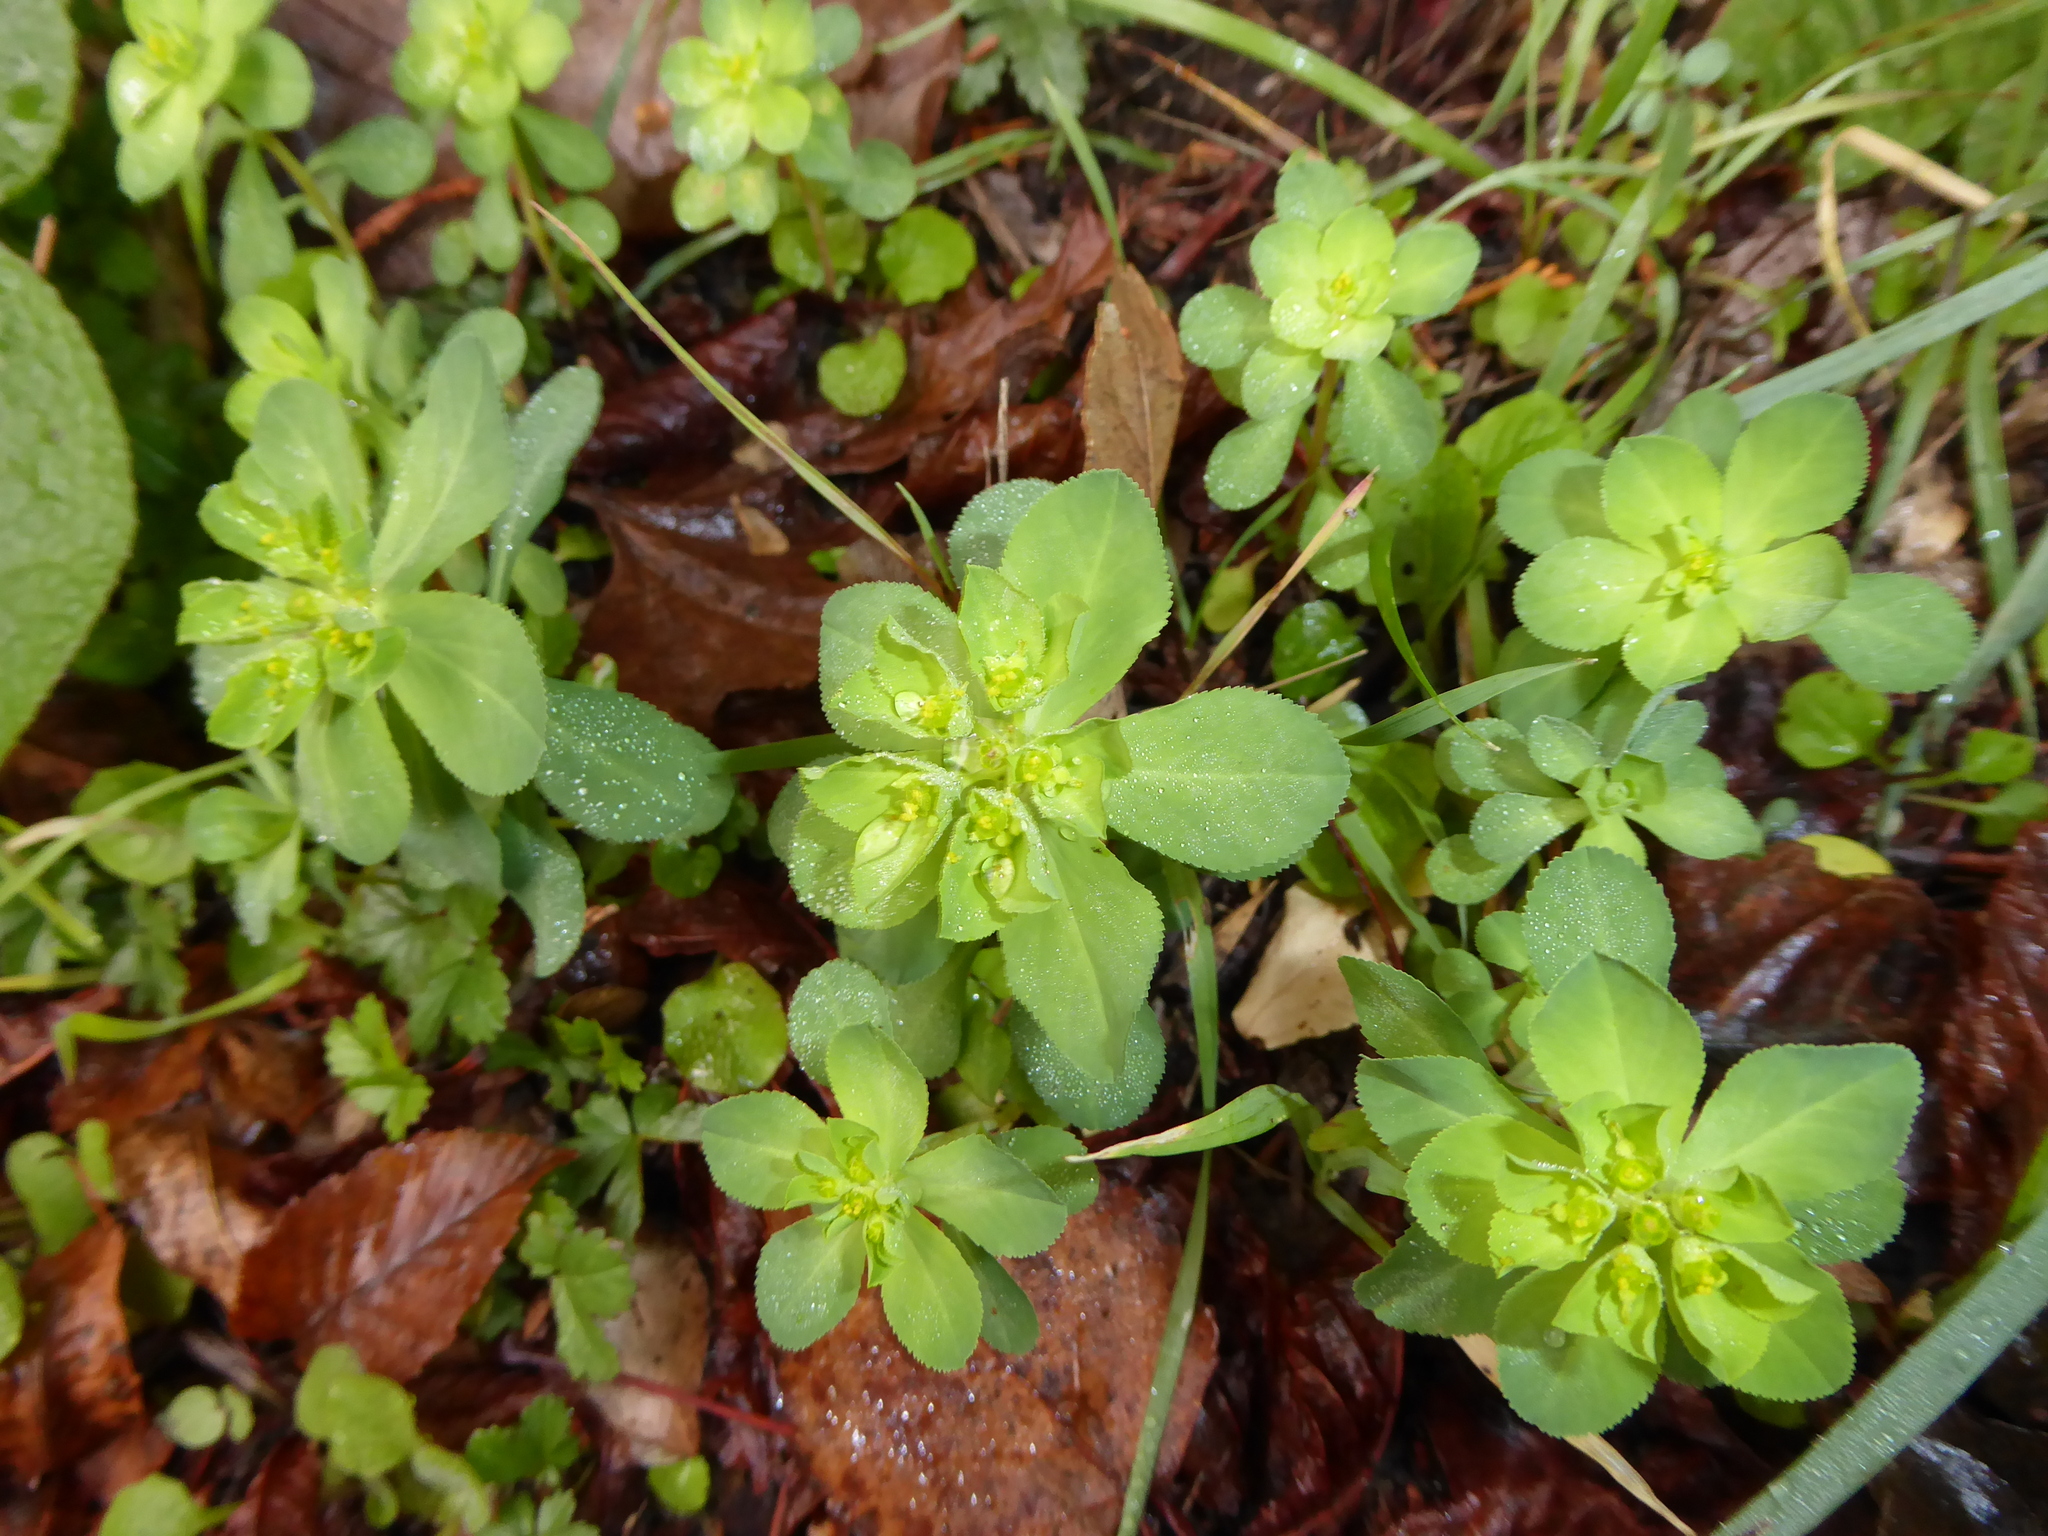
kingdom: Plantae
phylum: Tracheophyta
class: Magnoliopsida
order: Malpighiales
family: Euphorbiaceae
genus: Euphorbia
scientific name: Euphorbia helioscopia
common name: Sun spurge
